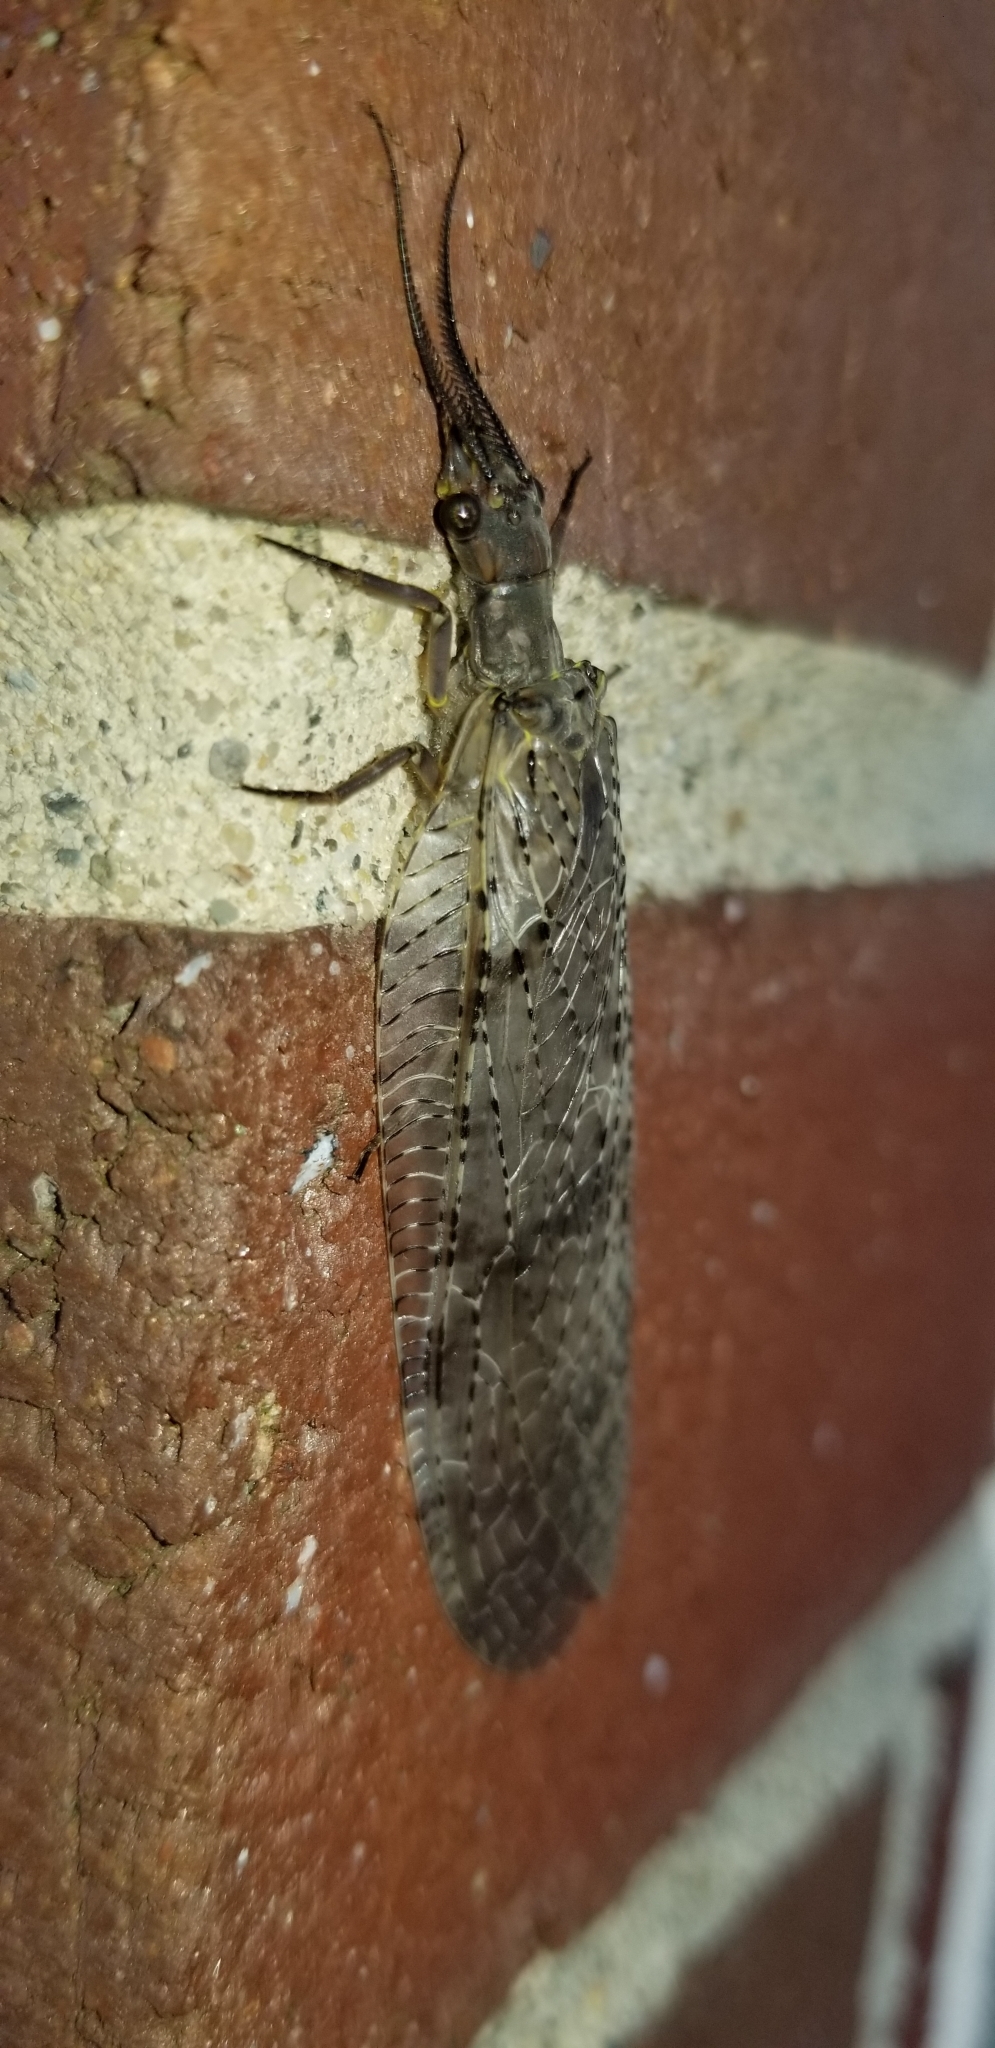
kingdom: Animalia
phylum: Arthropoda
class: Insecta
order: Megaloptera
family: Corydalidae
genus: Chauliodes
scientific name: Chauliodes pectinicornis
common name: Summer fishfly
